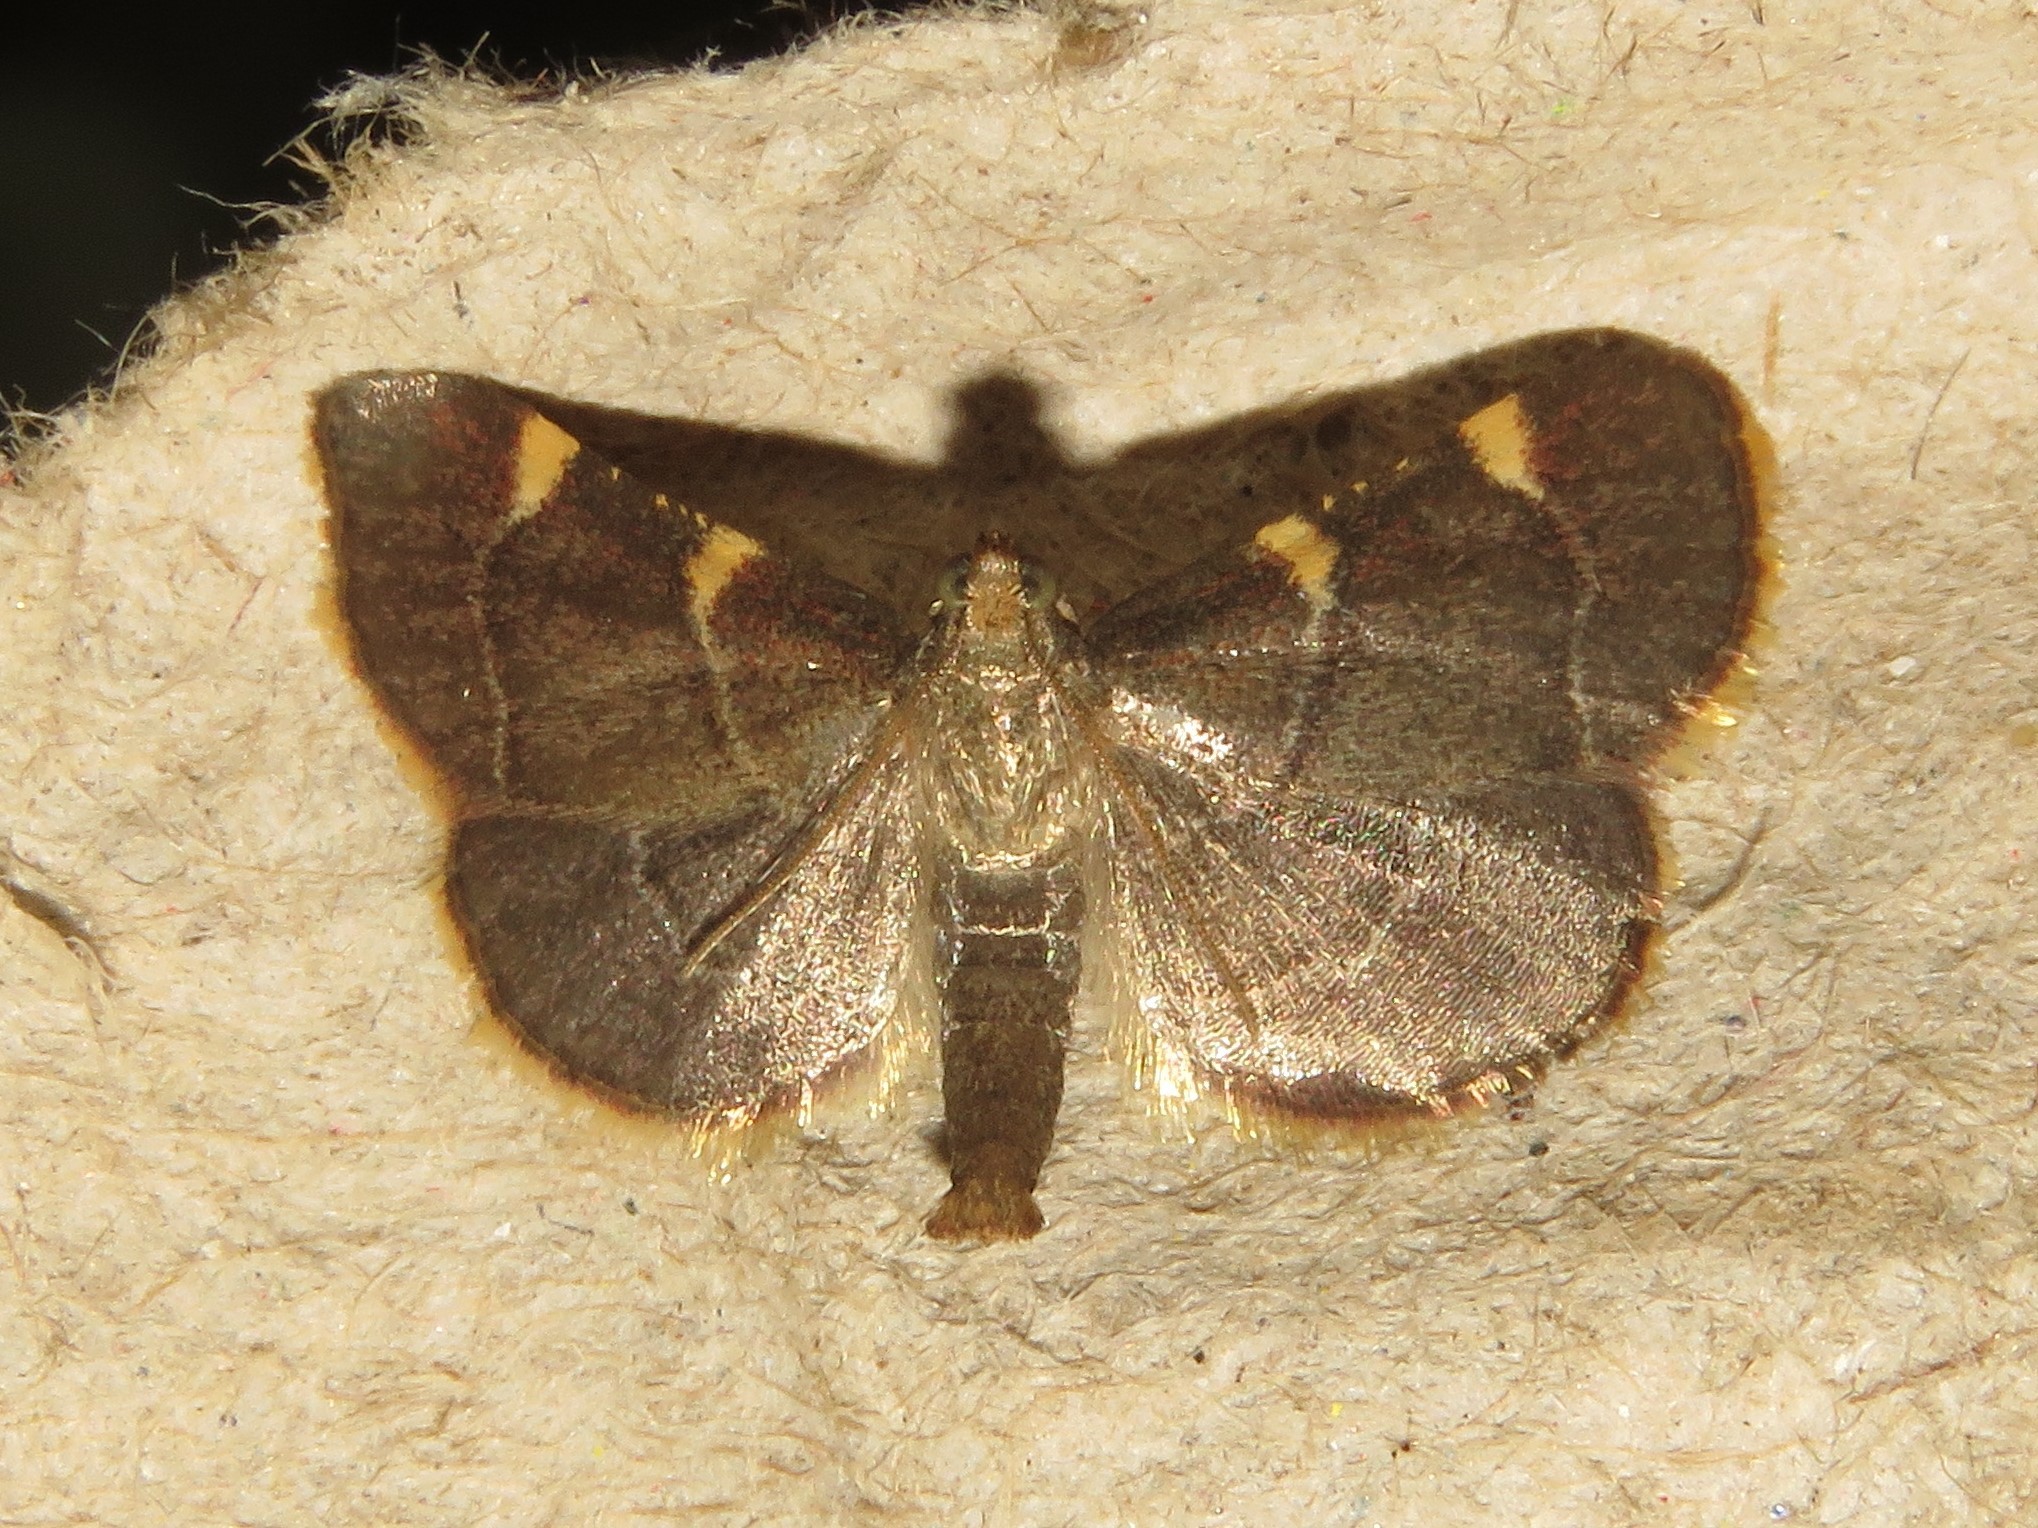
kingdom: Animalia
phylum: Arthropoda
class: Insecta
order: Lepidoptera
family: Pyralidae
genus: Hypsopygia
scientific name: Hypsopygia olinalis
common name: Yellow-fringed dolichomia moth
